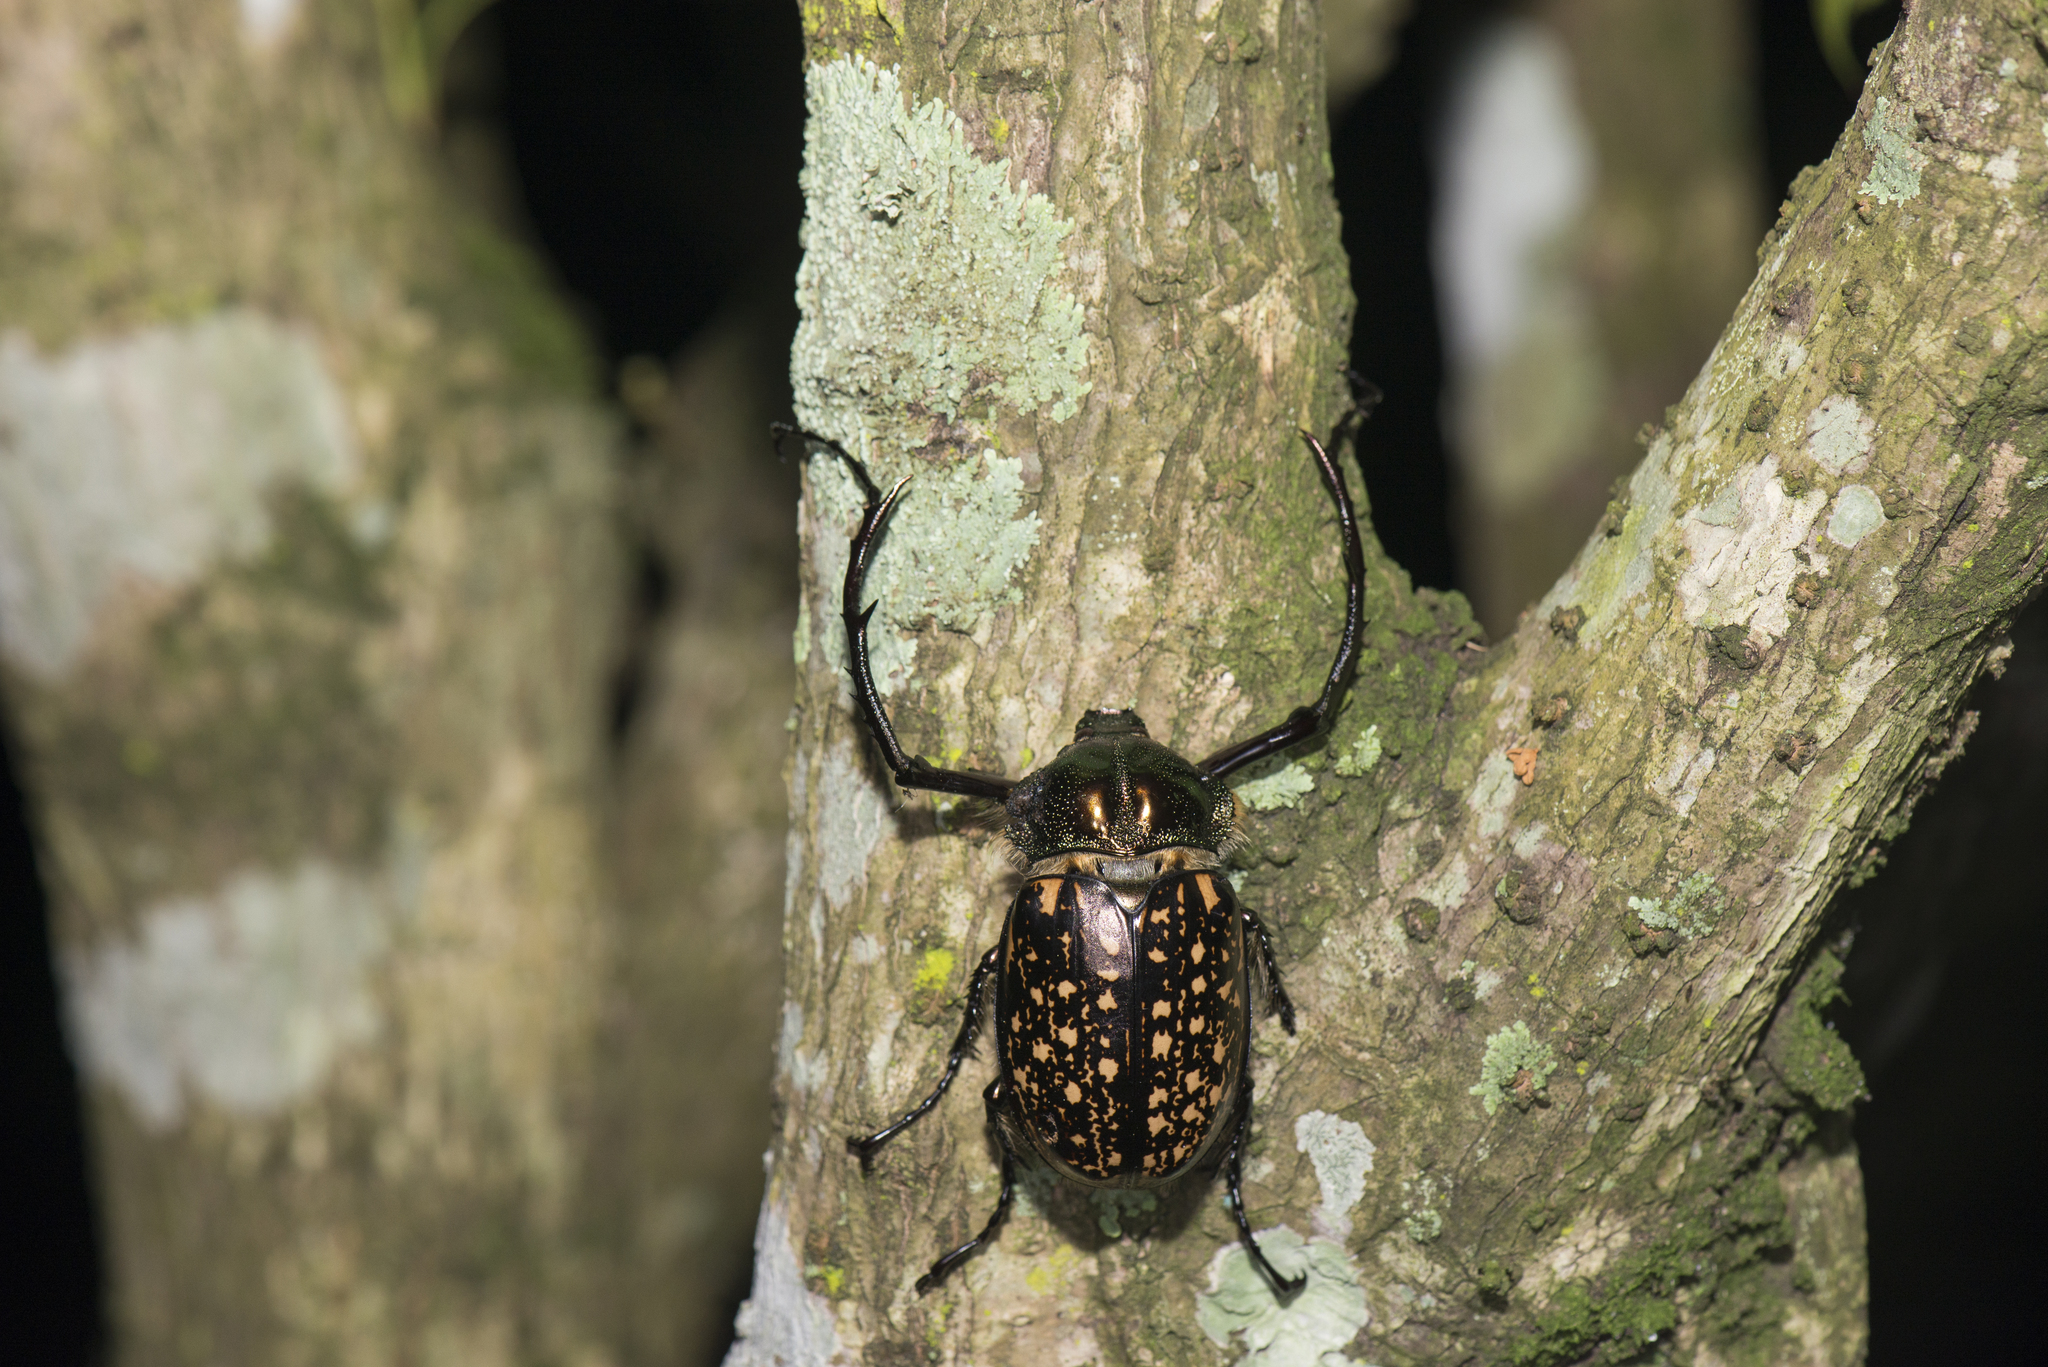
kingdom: Animalia
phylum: Arthropoda
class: Insecta
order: Coleoptera
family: Scarabaeidae
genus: Cheirotonus
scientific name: Cheirotonus formosanus
